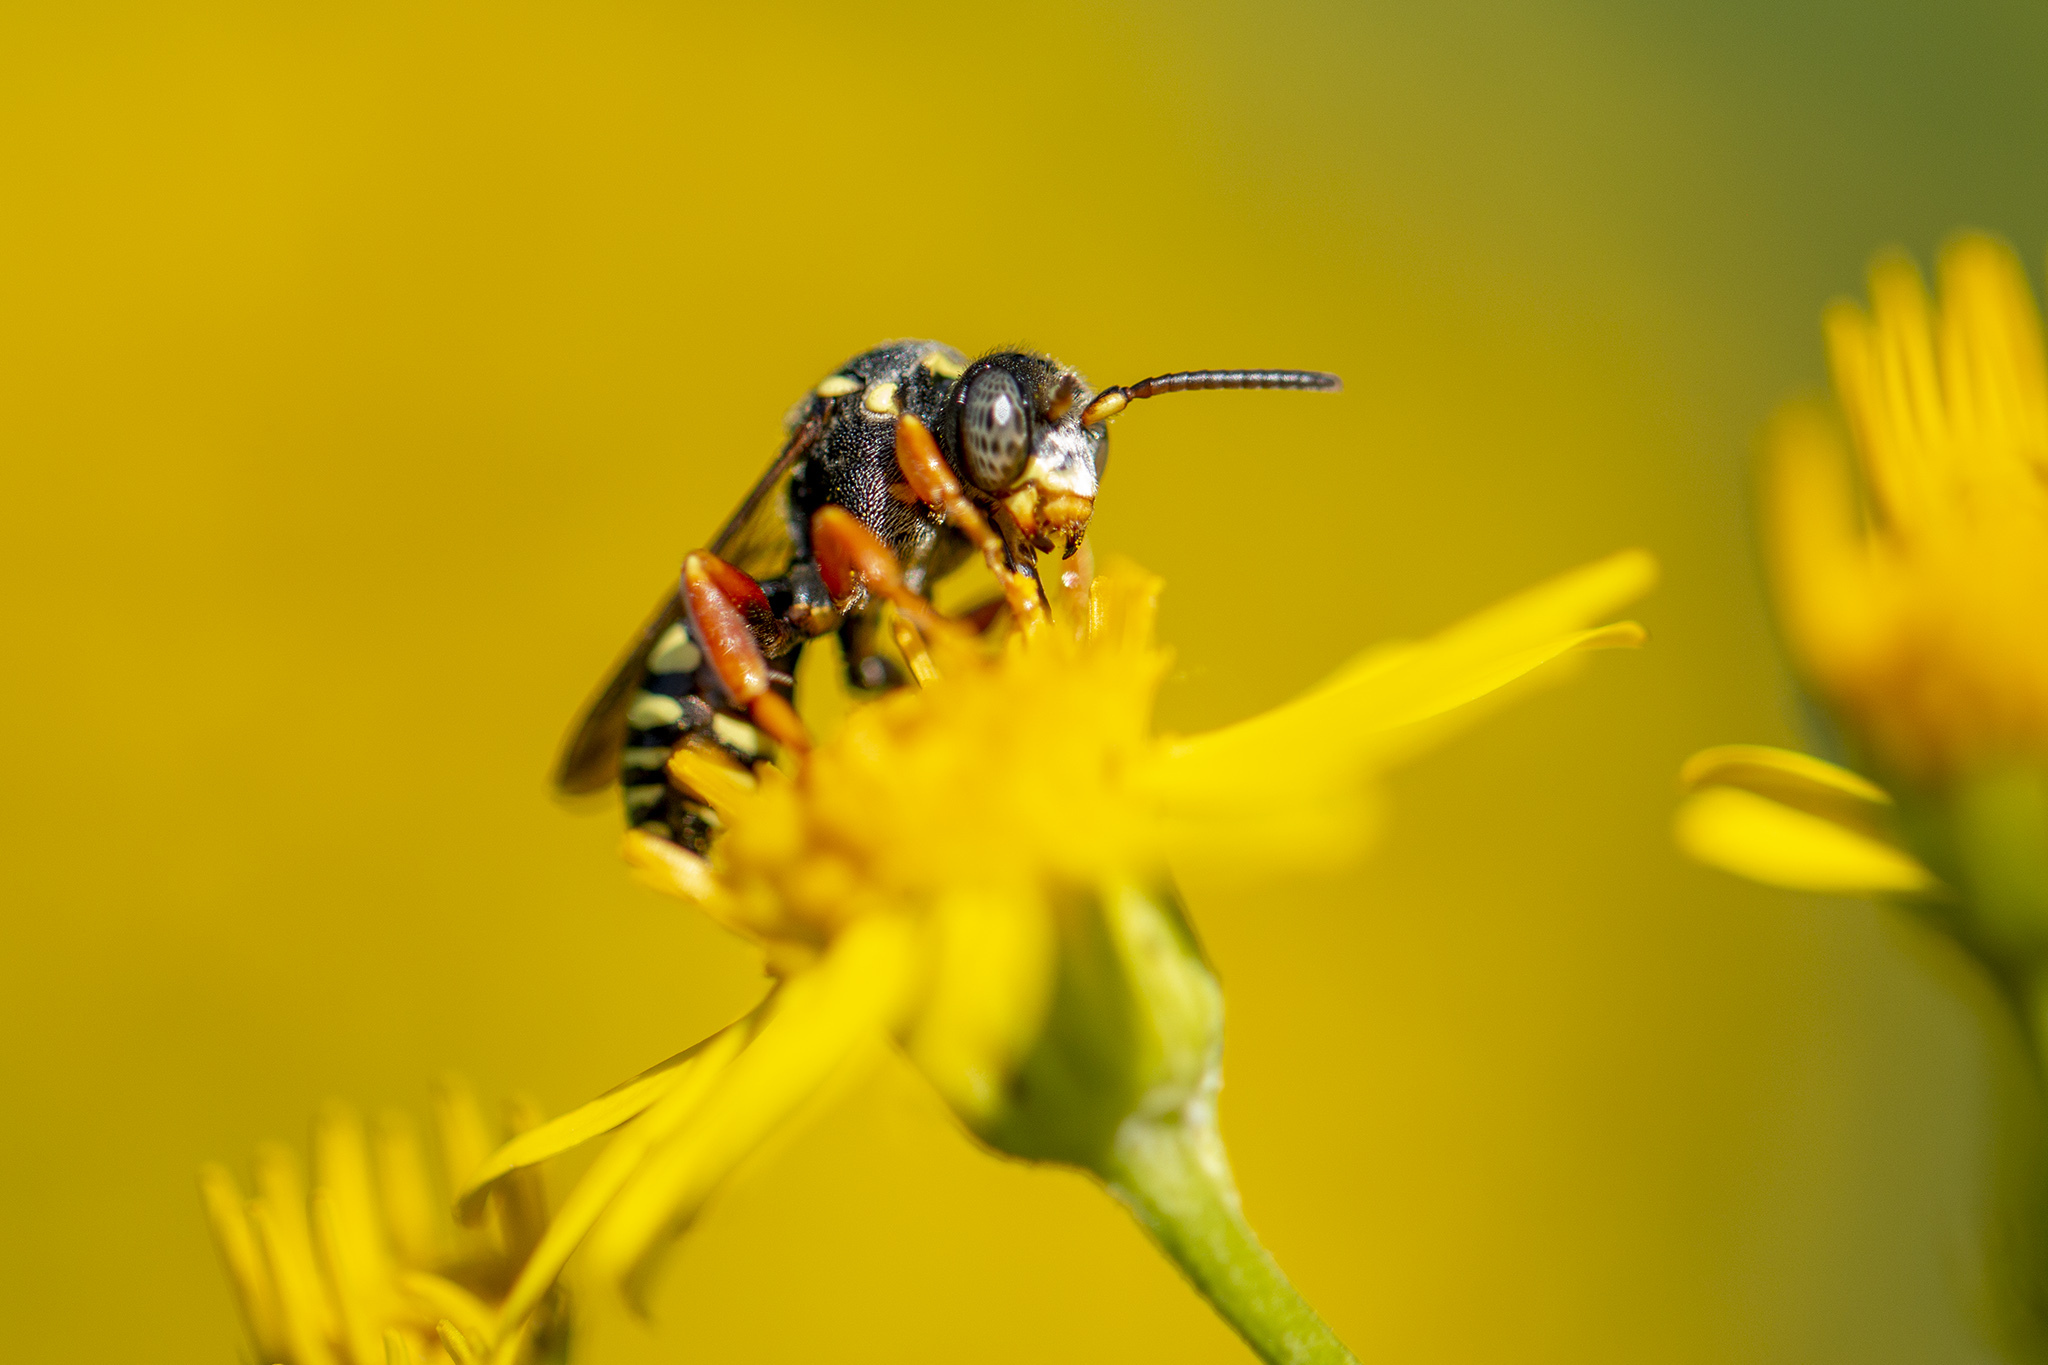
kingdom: Animalia
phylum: Arthropoda
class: Insecta
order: Hymenoptera
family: Apidae
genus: Nomada
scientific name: Nomada flavopicta
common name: Blunthorn nomad bee
